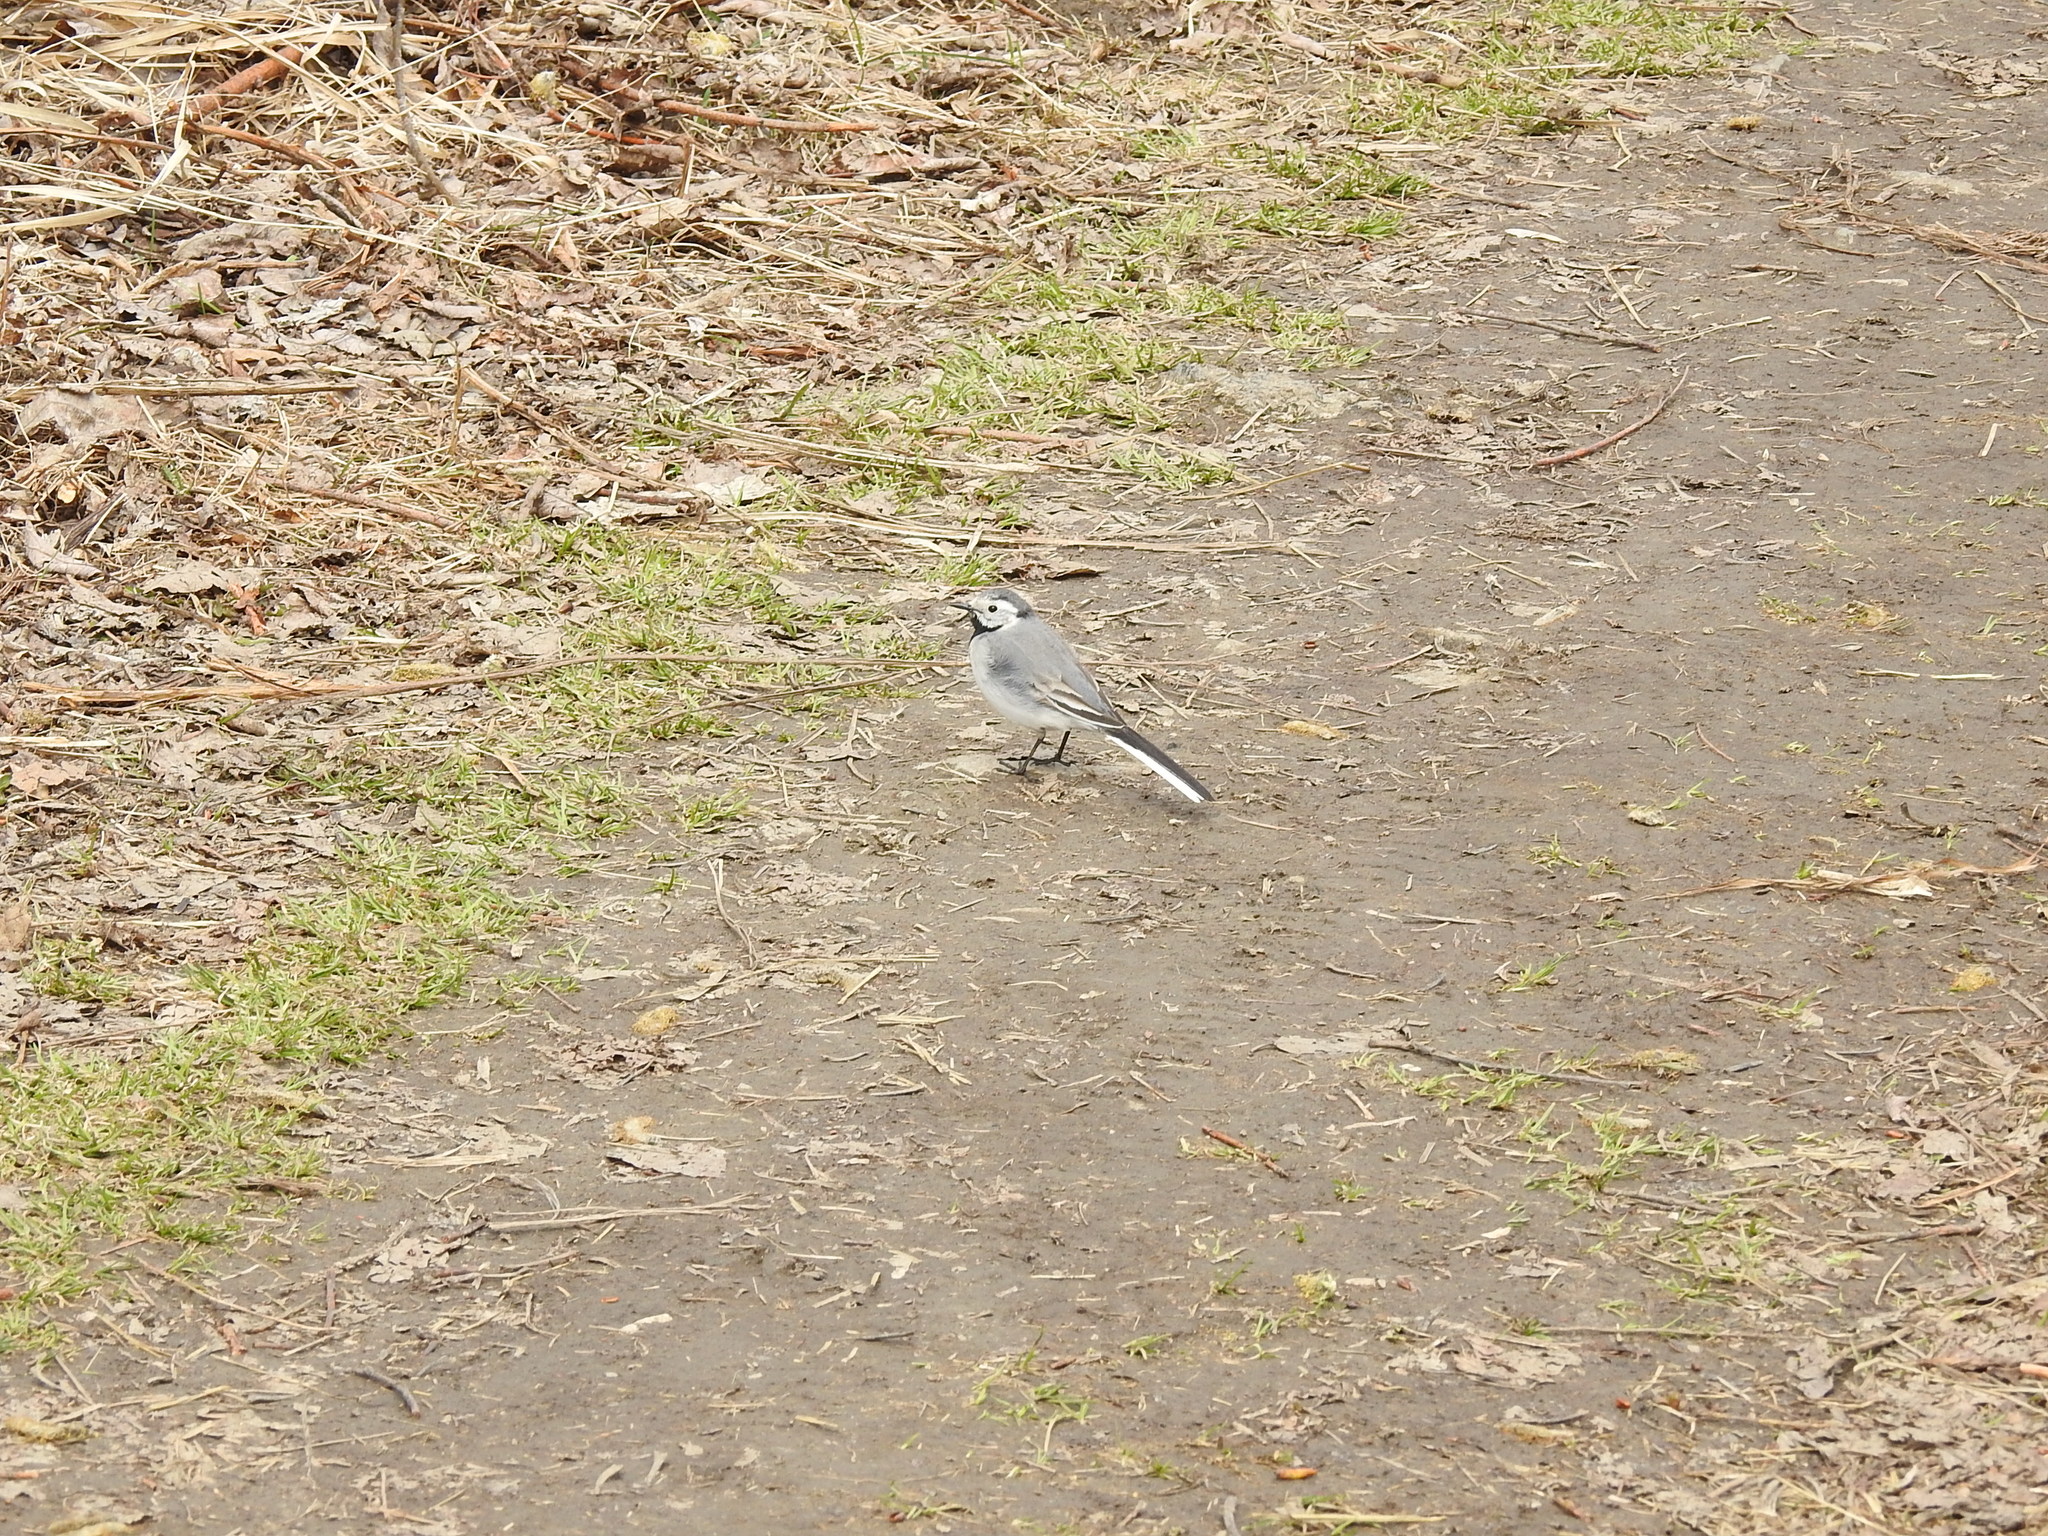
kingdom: Animalia
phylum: Chordata
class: Aves
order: Passeriformes
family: Motacillidae
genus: Motacilla
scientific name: Motacilla alba
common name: White wagtail
